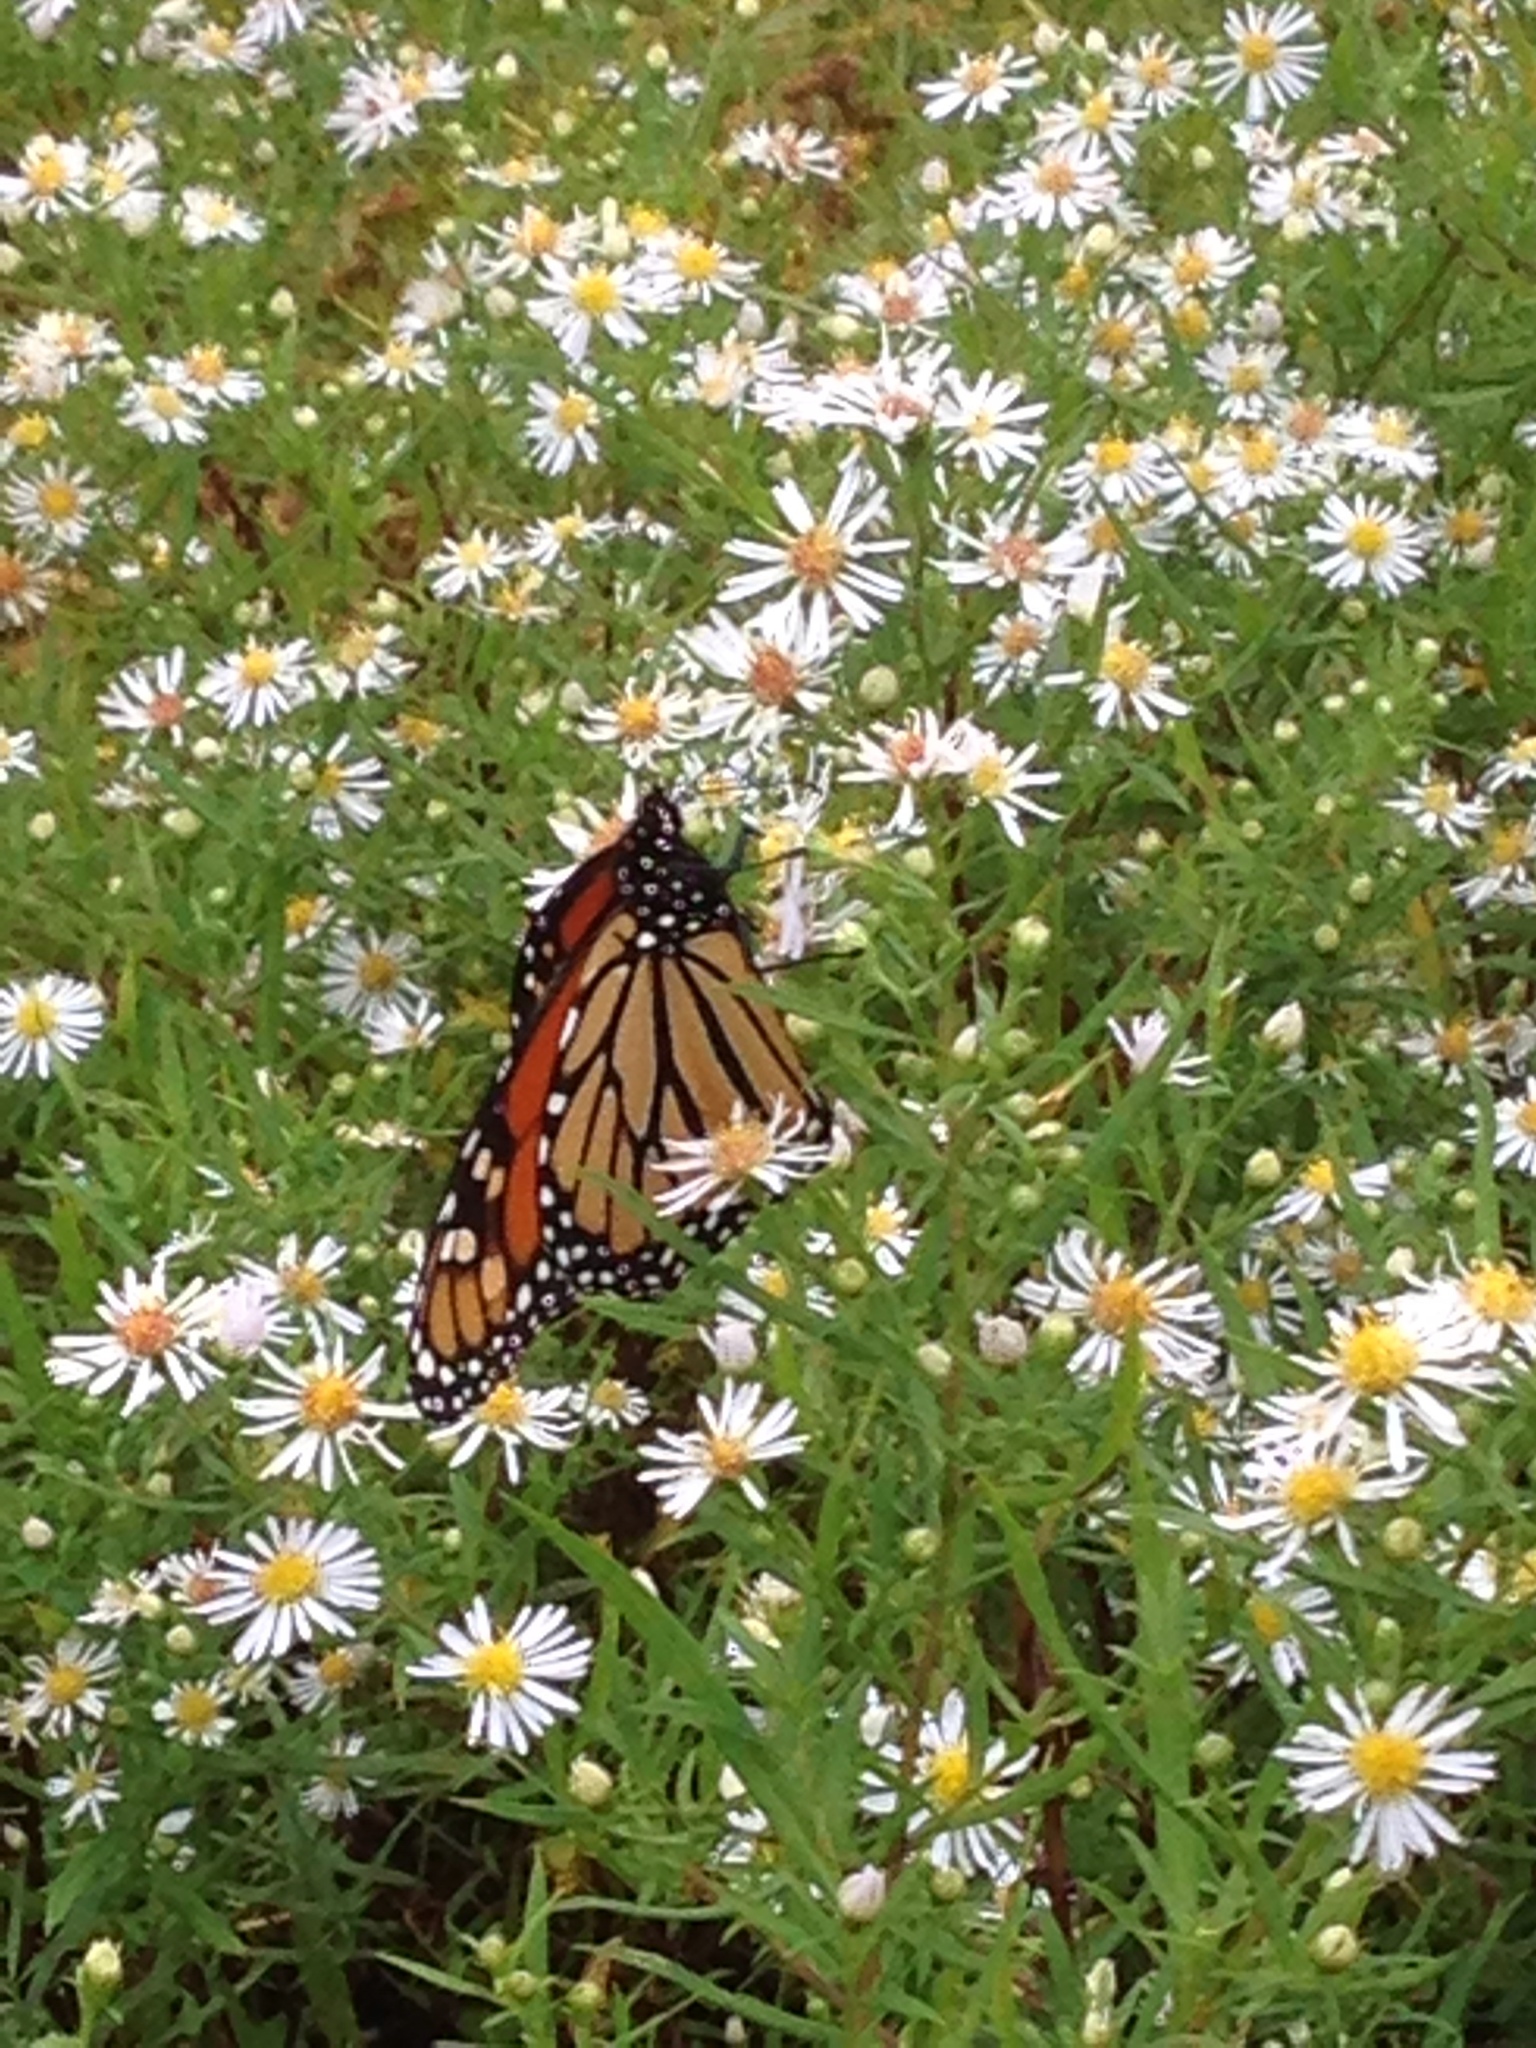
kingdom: Animalia
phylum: Arthropoda
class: Insecta
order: Lepidoptera
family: Nymphalidae
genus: Danaus
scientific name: Danaus plexippus
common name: Monarch
